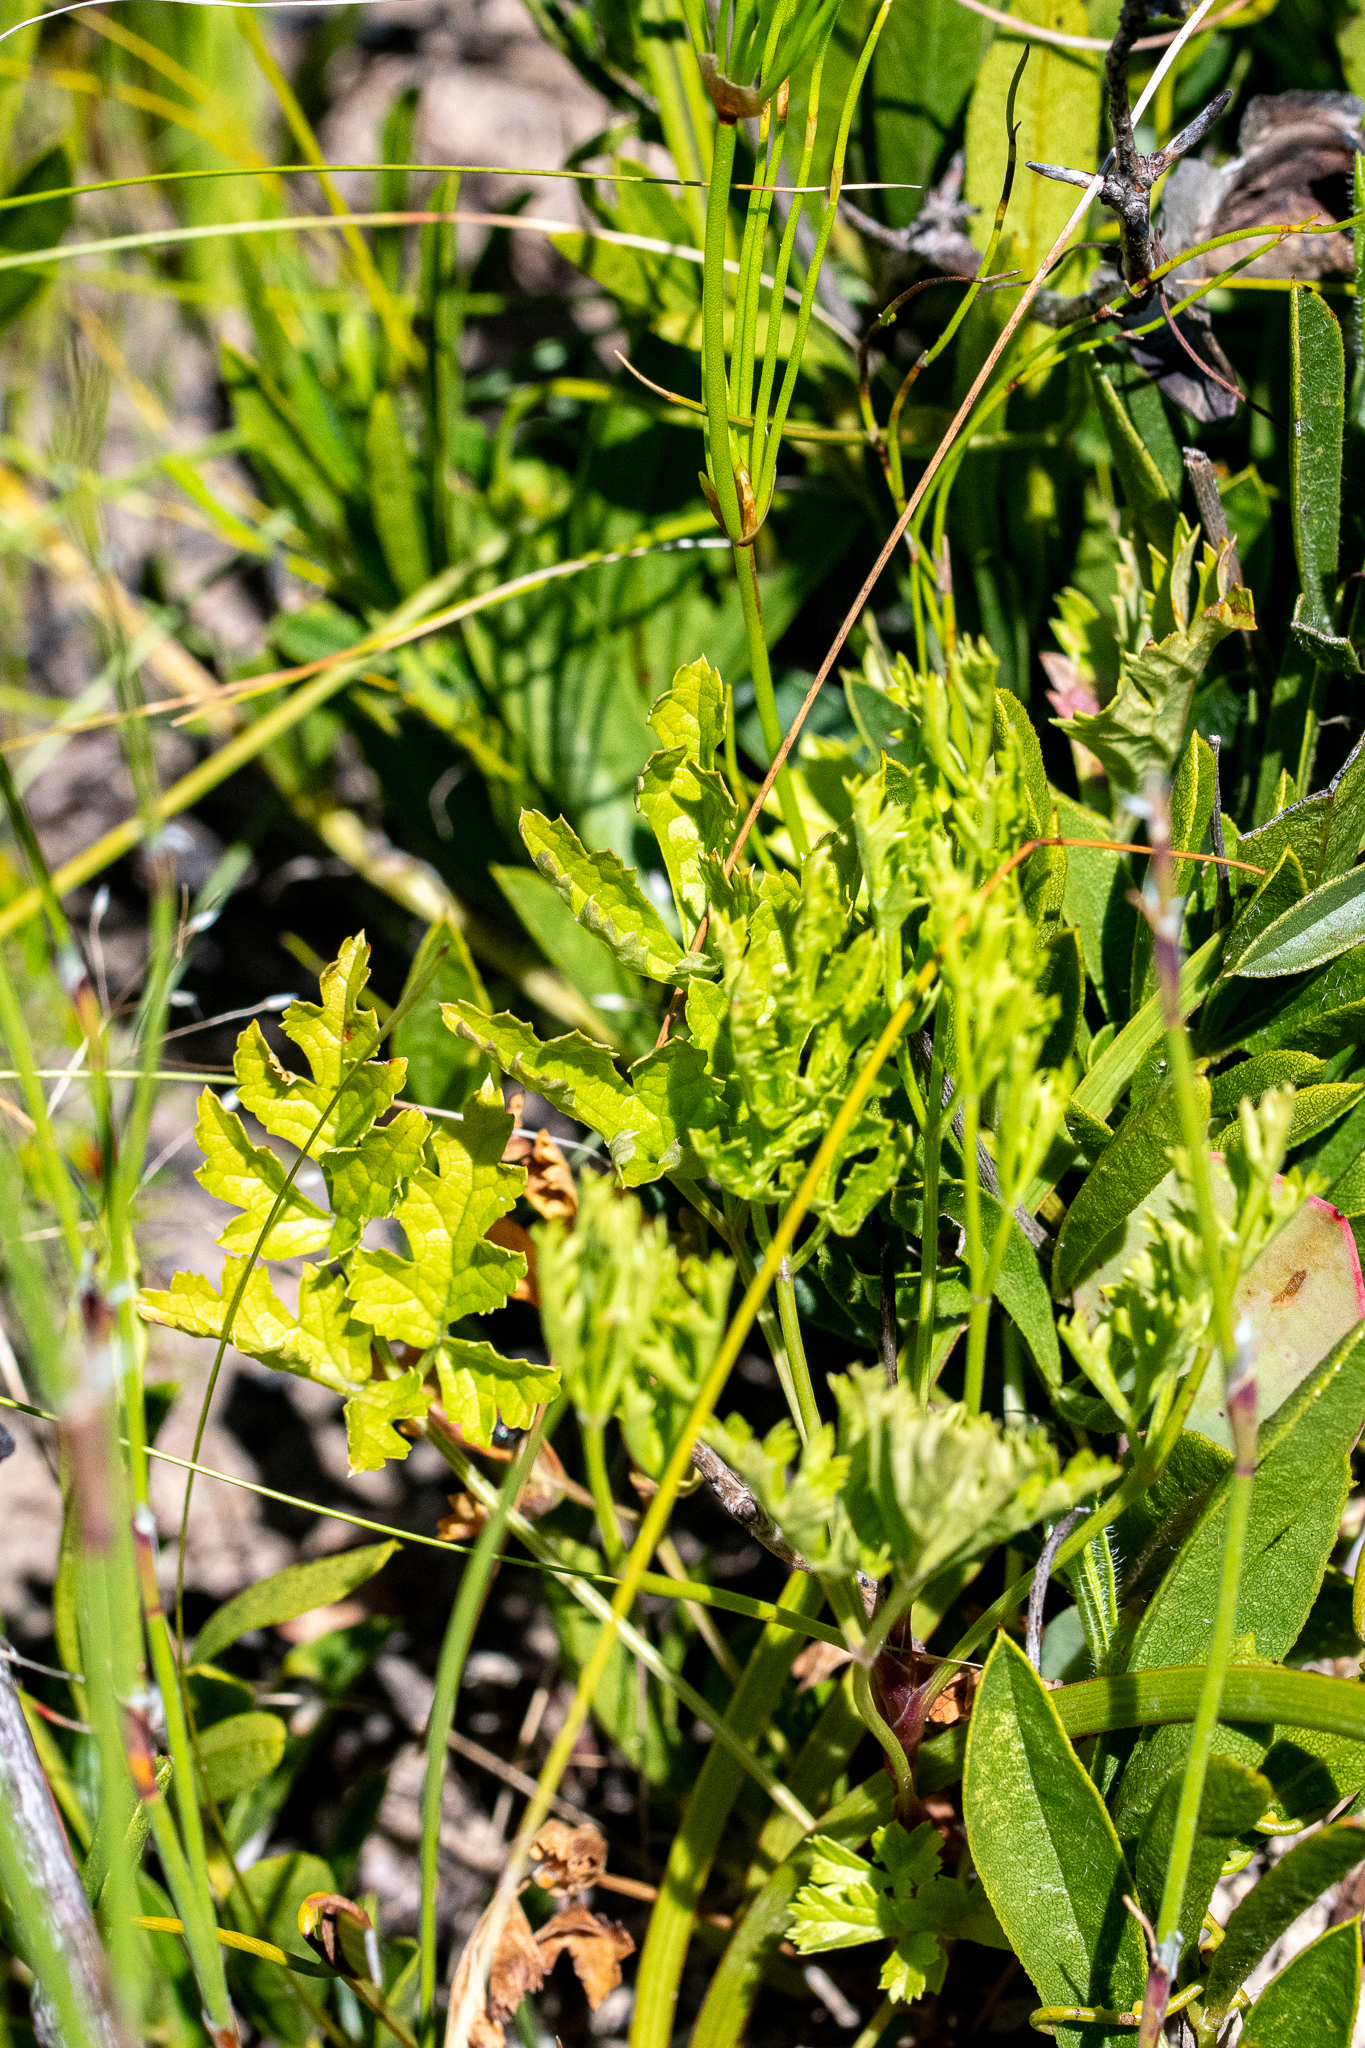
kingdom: Plantae
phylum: Tracheophyta
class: Magnoliopsida
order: Apiales
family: Apiaceae
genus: Glia
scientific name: Glia prolifera
